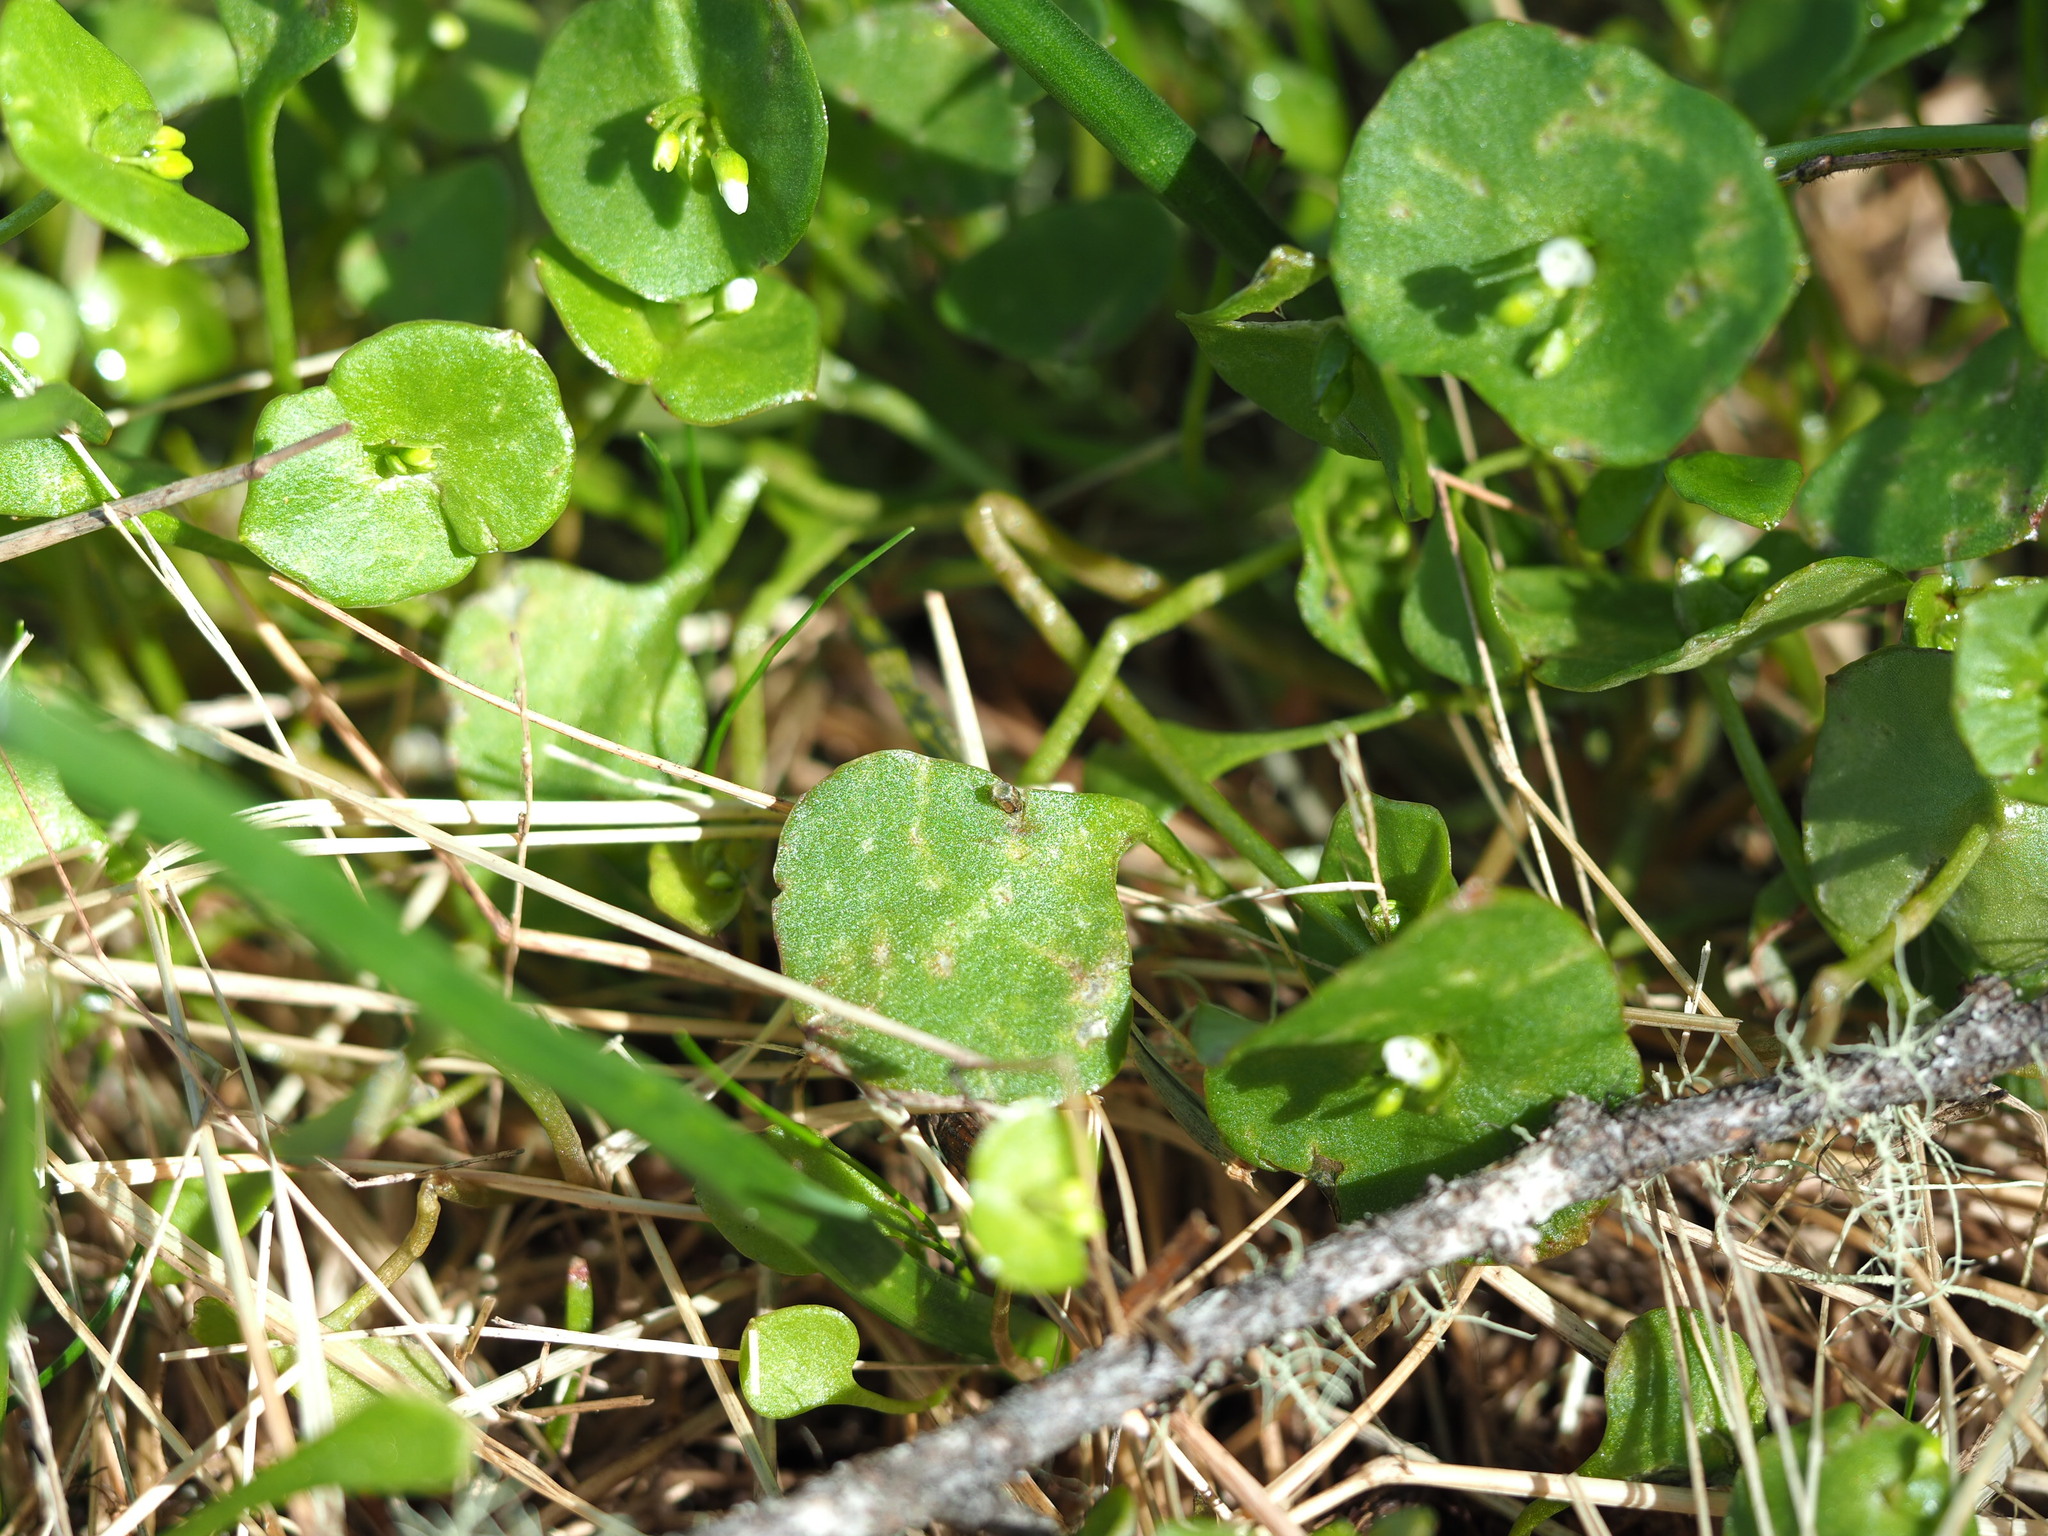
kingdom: Plantae
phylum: Tracheophyta
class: Magnoliopsida
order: Caryophyllales
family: Montiaceae
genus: Claytonia
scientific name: Claytonia perfoliata
